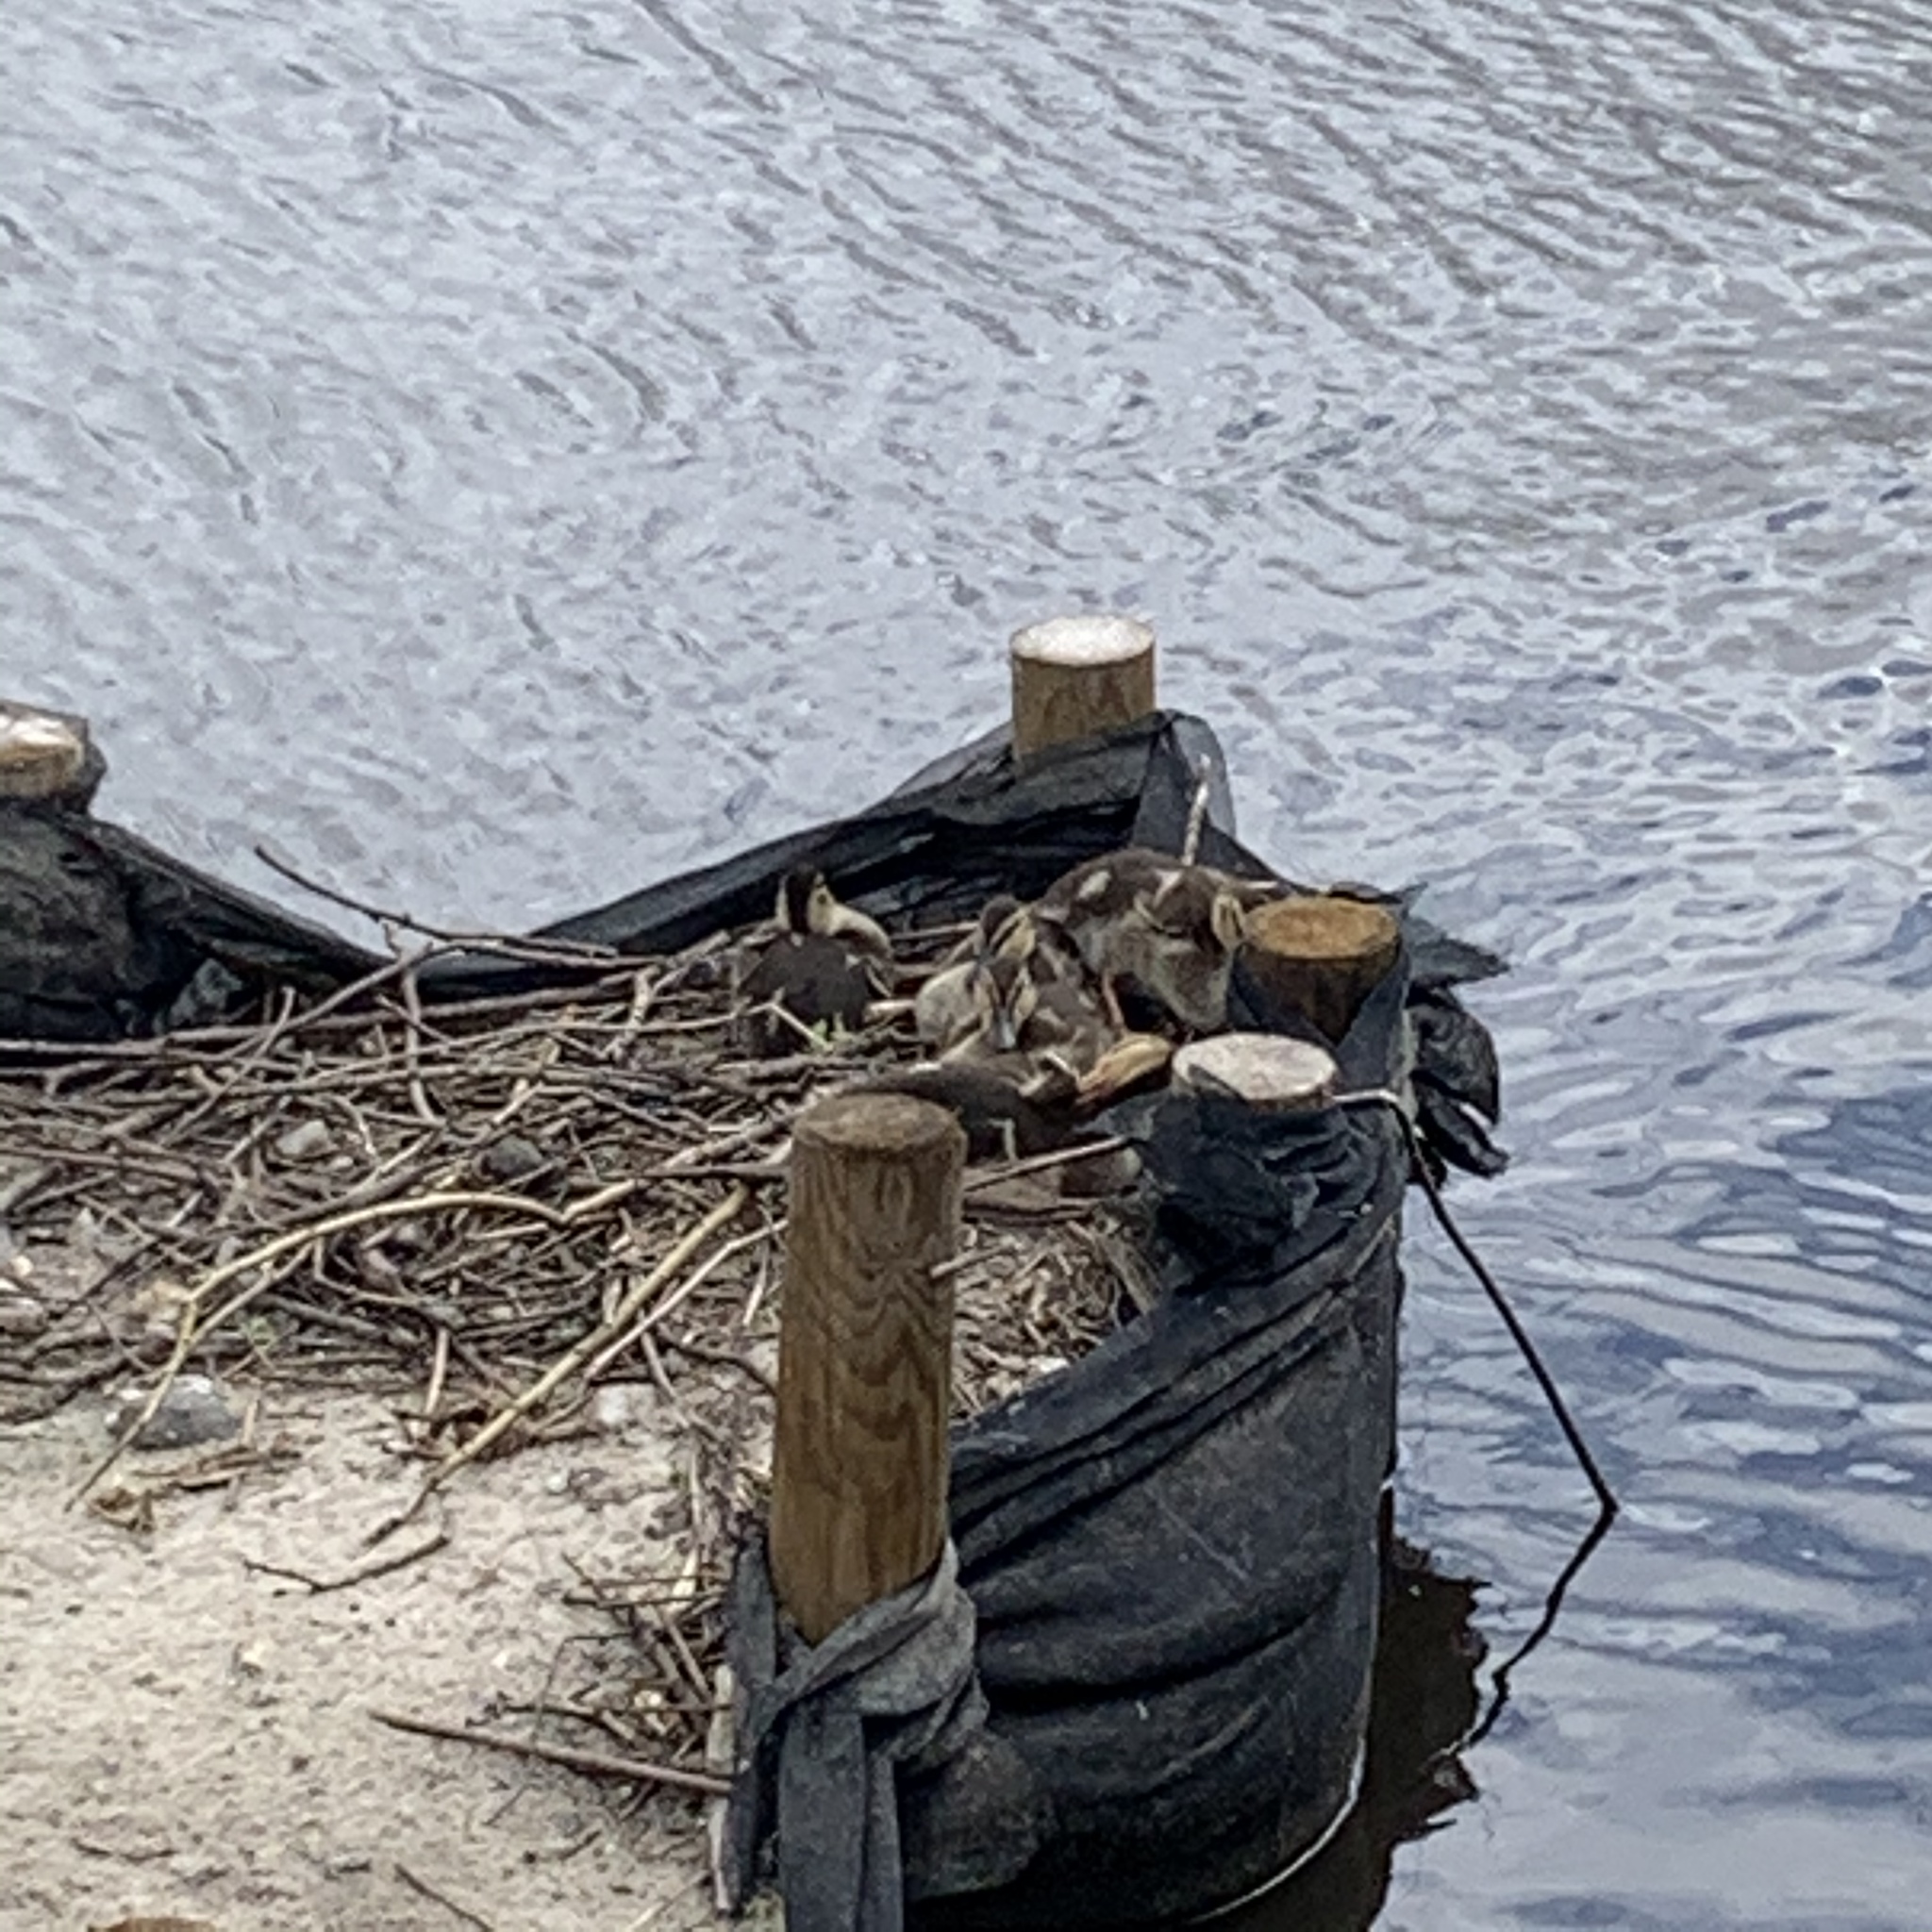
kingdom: Animalia
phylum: Chordata
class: Aves
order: Anseriformes
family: Anatidae
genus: Anas
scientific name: Anas platyrhynchos
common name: Mallard
